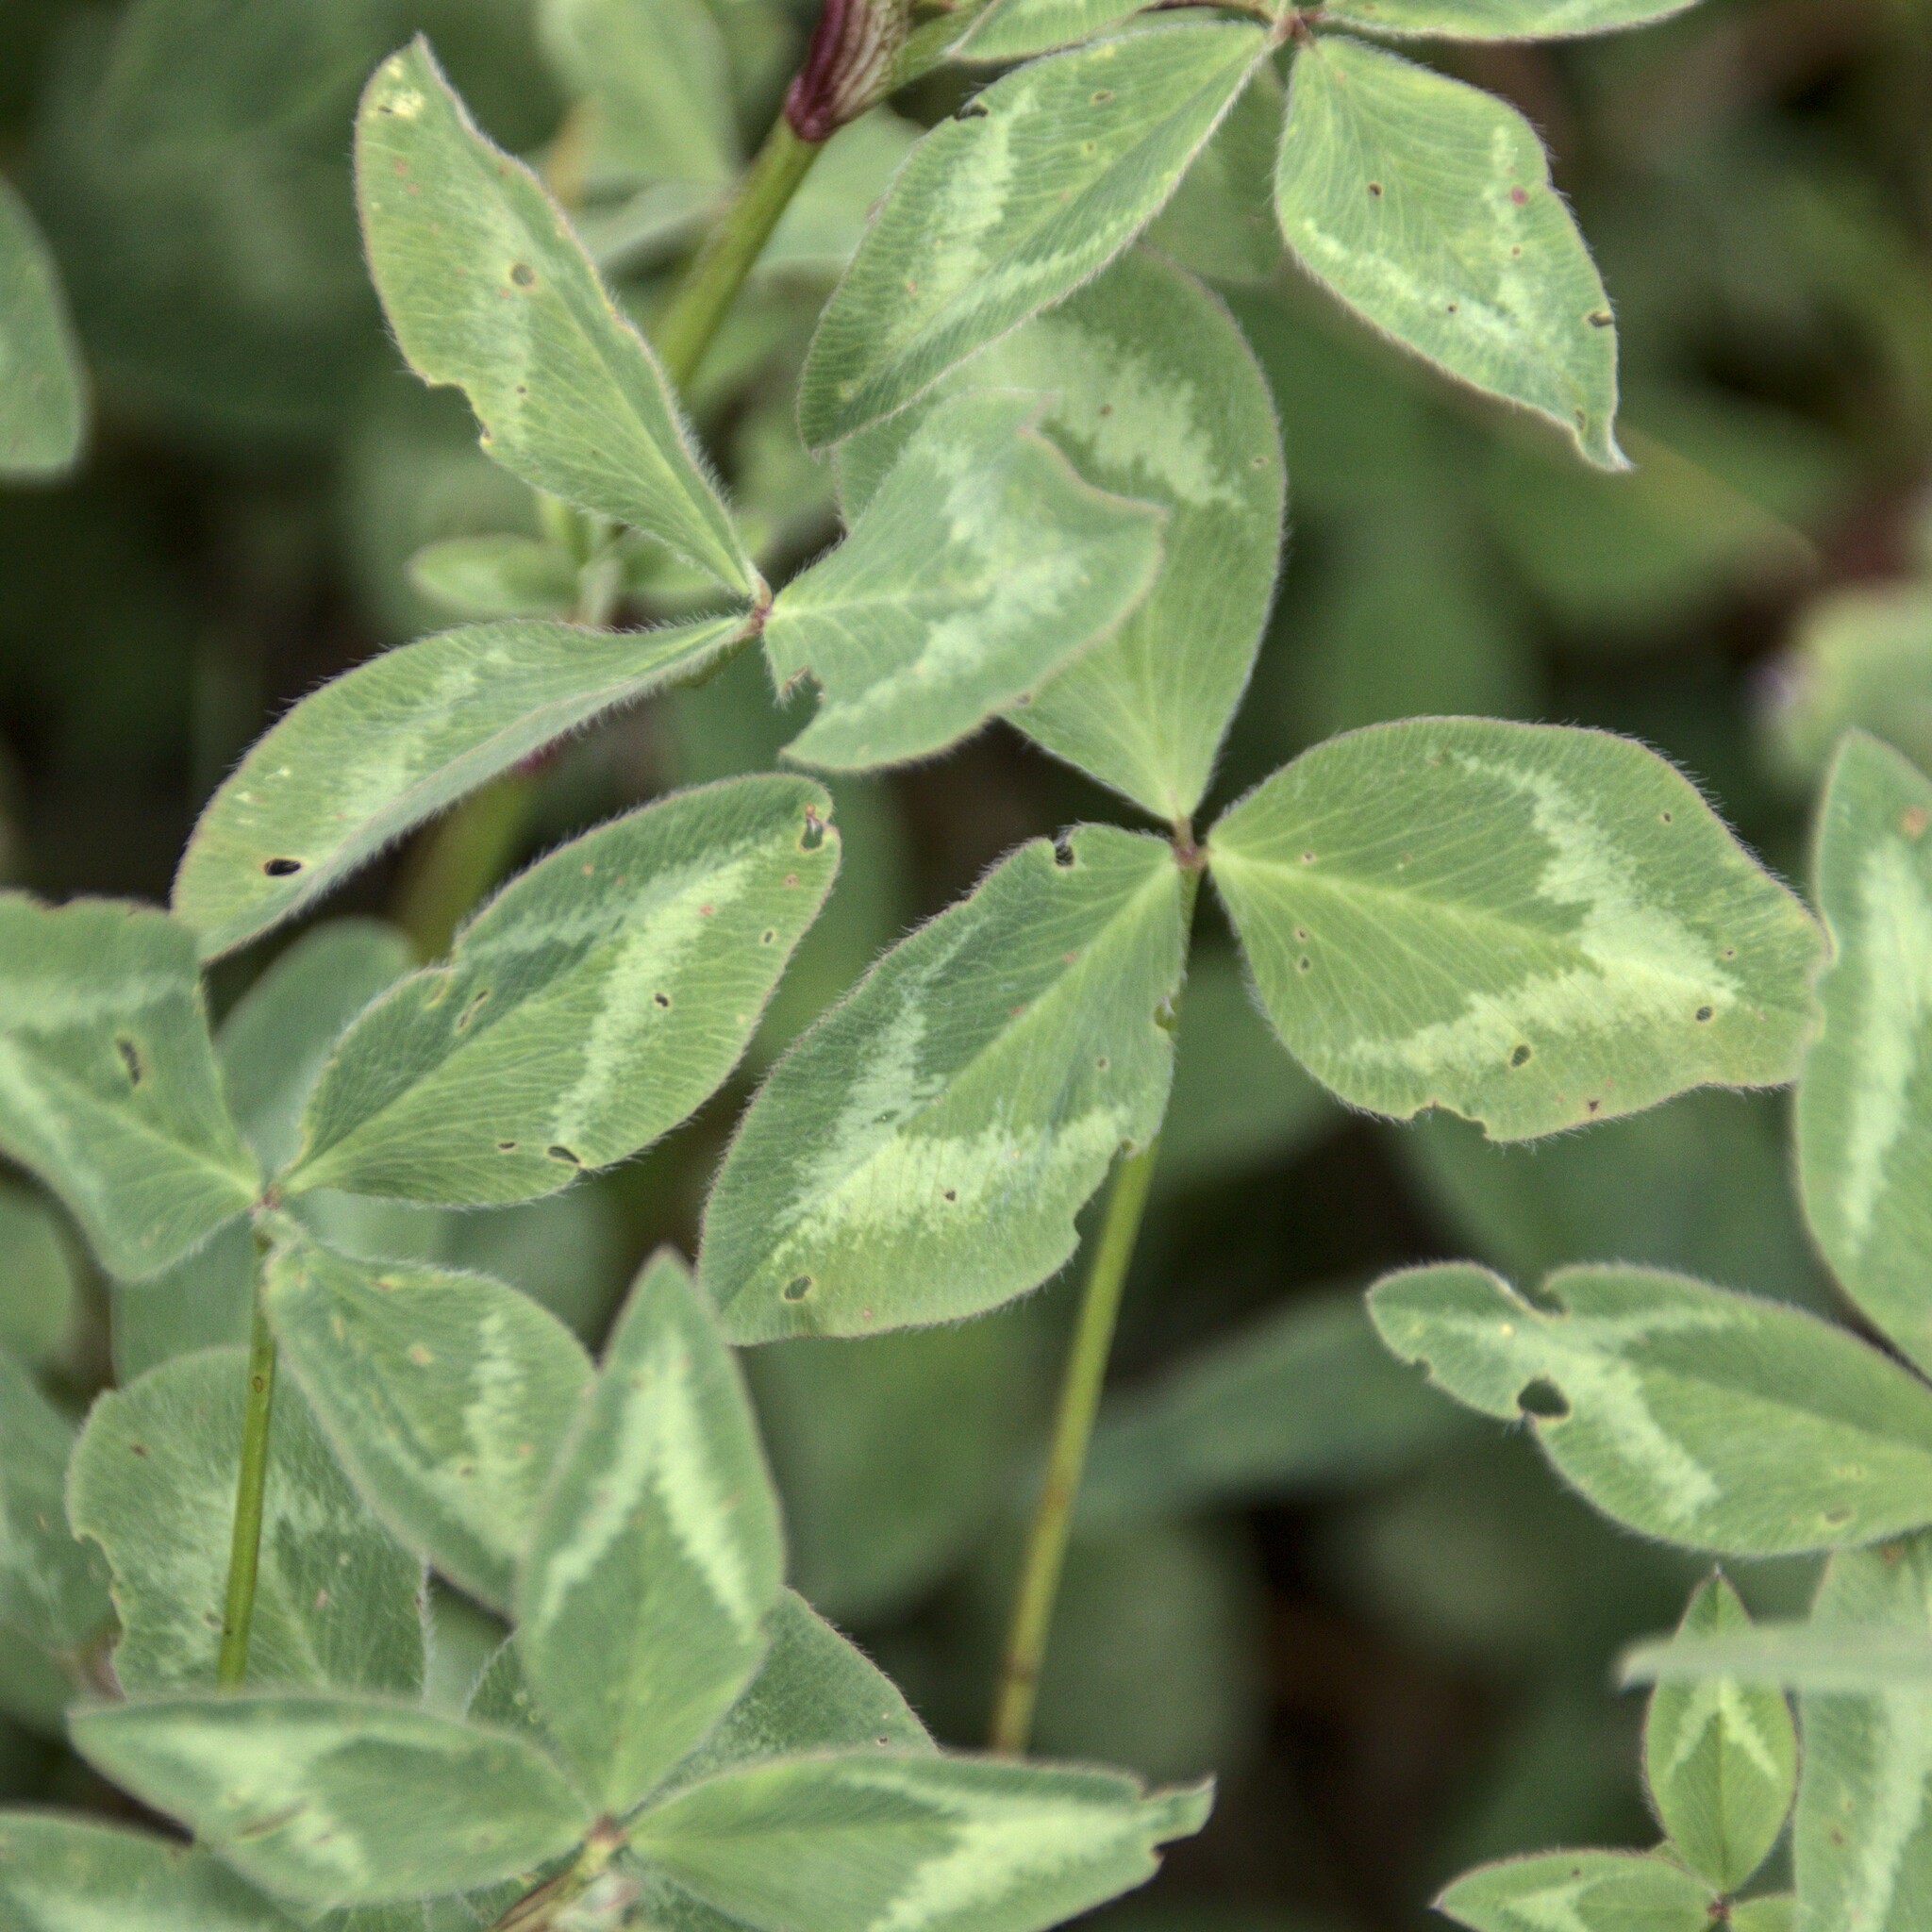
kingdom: Plantae
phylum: Tracheophyta
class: Magnoliopsida
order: Fabales
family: Fabaceae
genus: Trifolium
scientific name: Trifolium pratense
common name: Red clover
